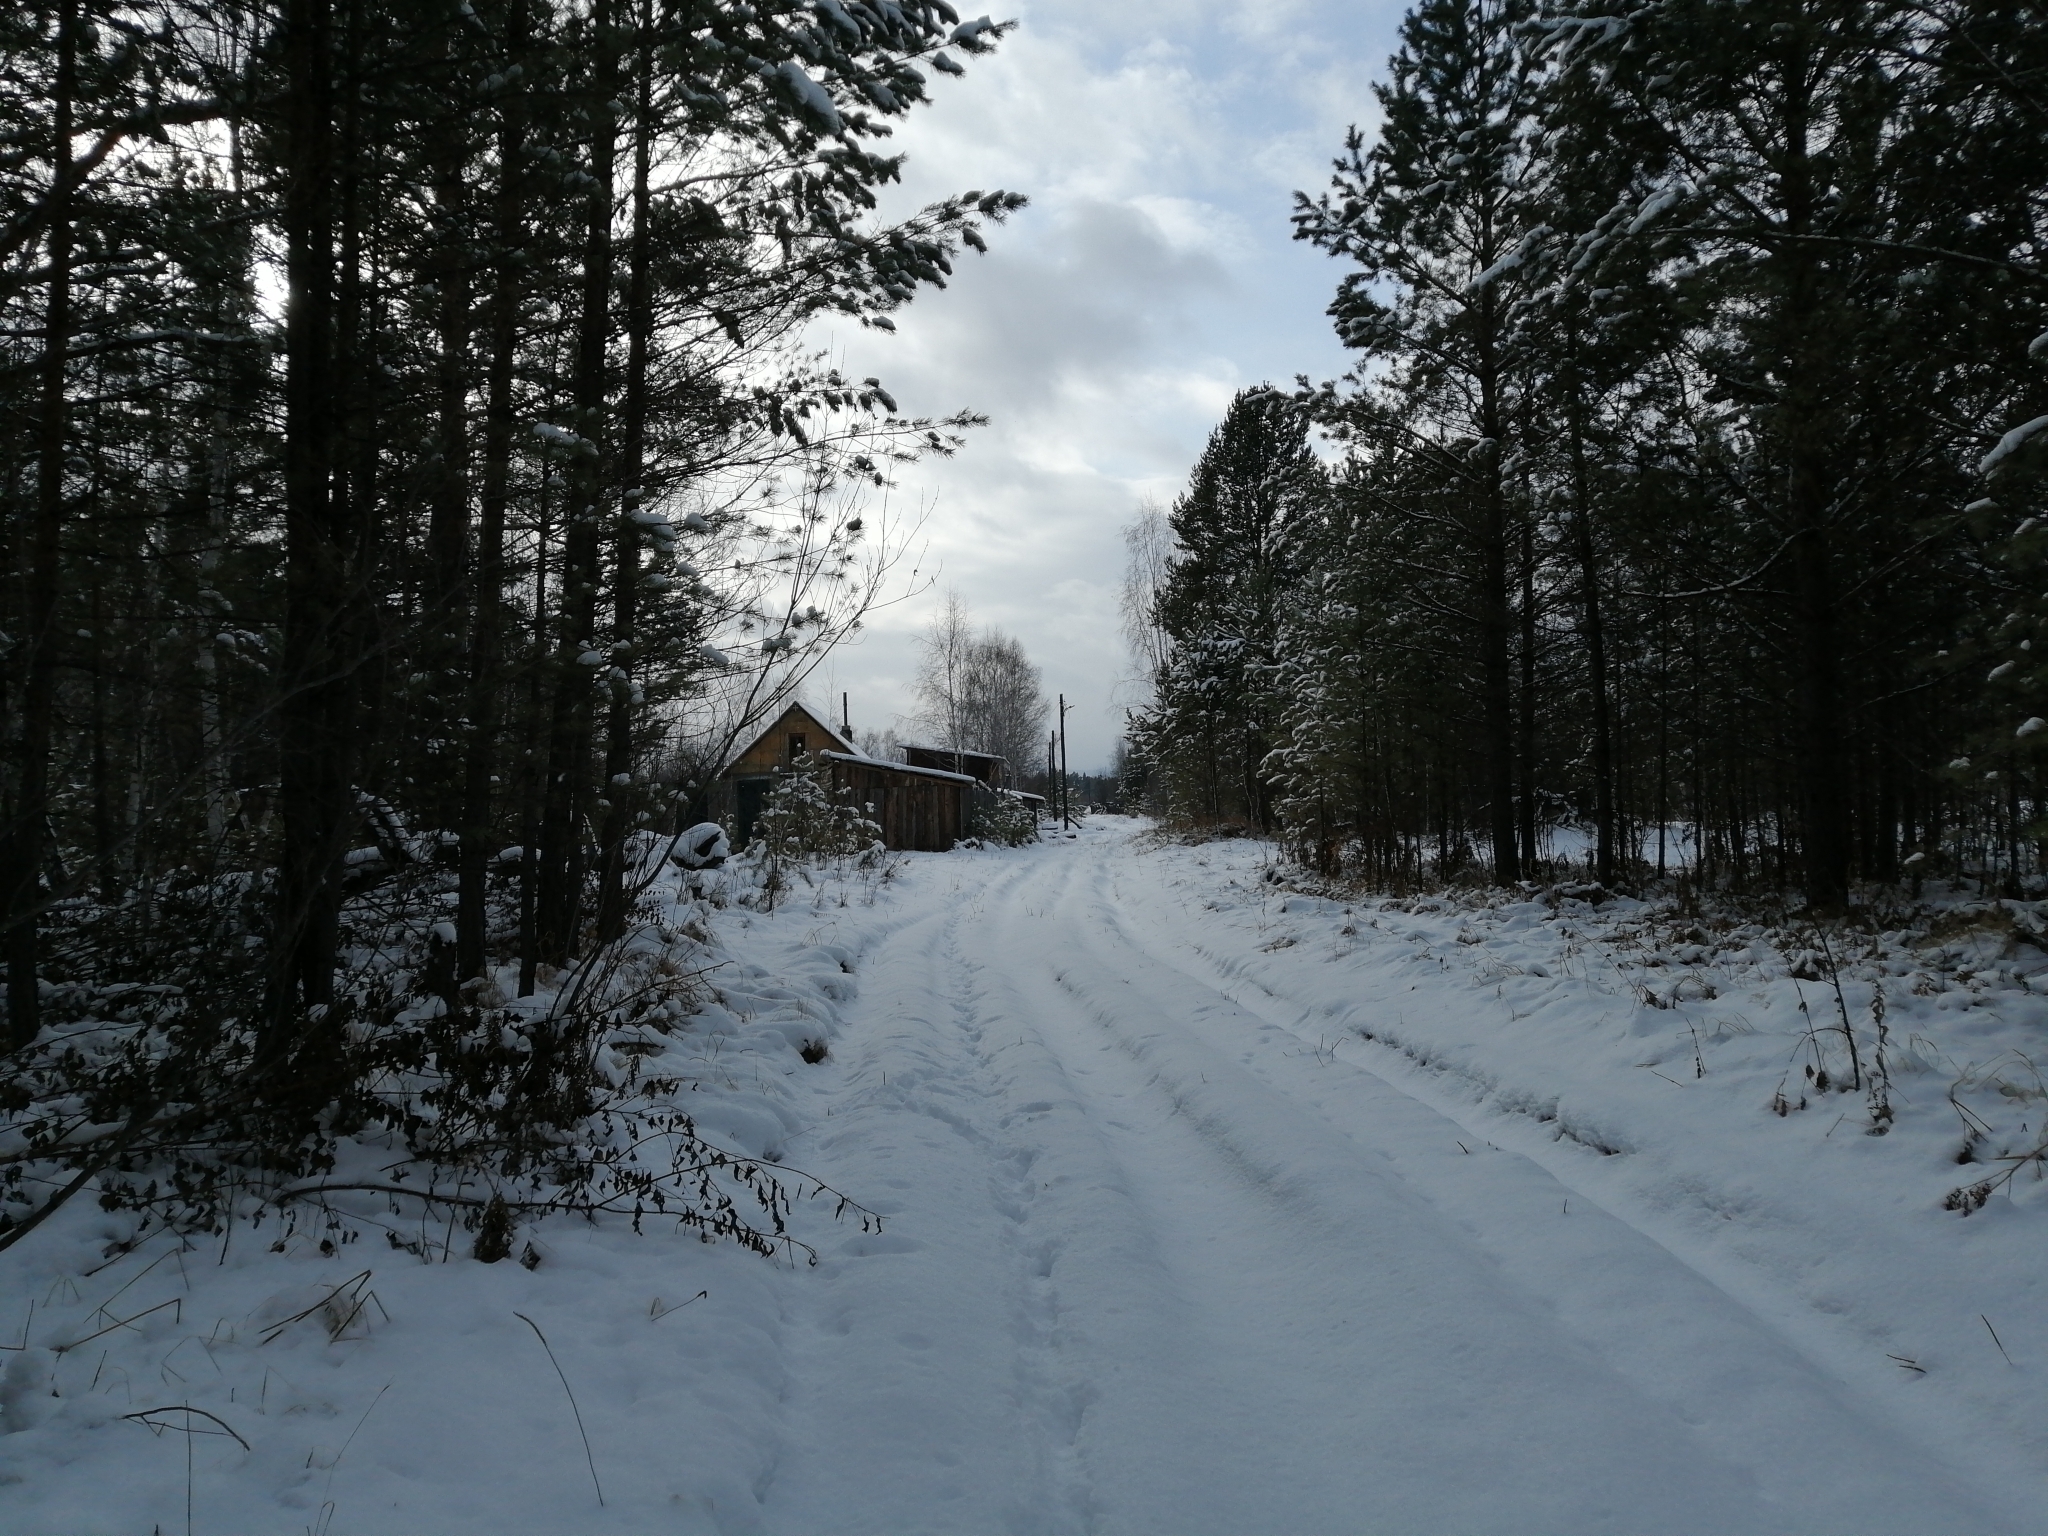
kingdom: Plantae
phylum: Tracheophyta
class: Pinopsida
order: Pinales
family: Pinaceae
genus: Pinus
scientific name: Pinus sylvestris
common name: Scots pine
